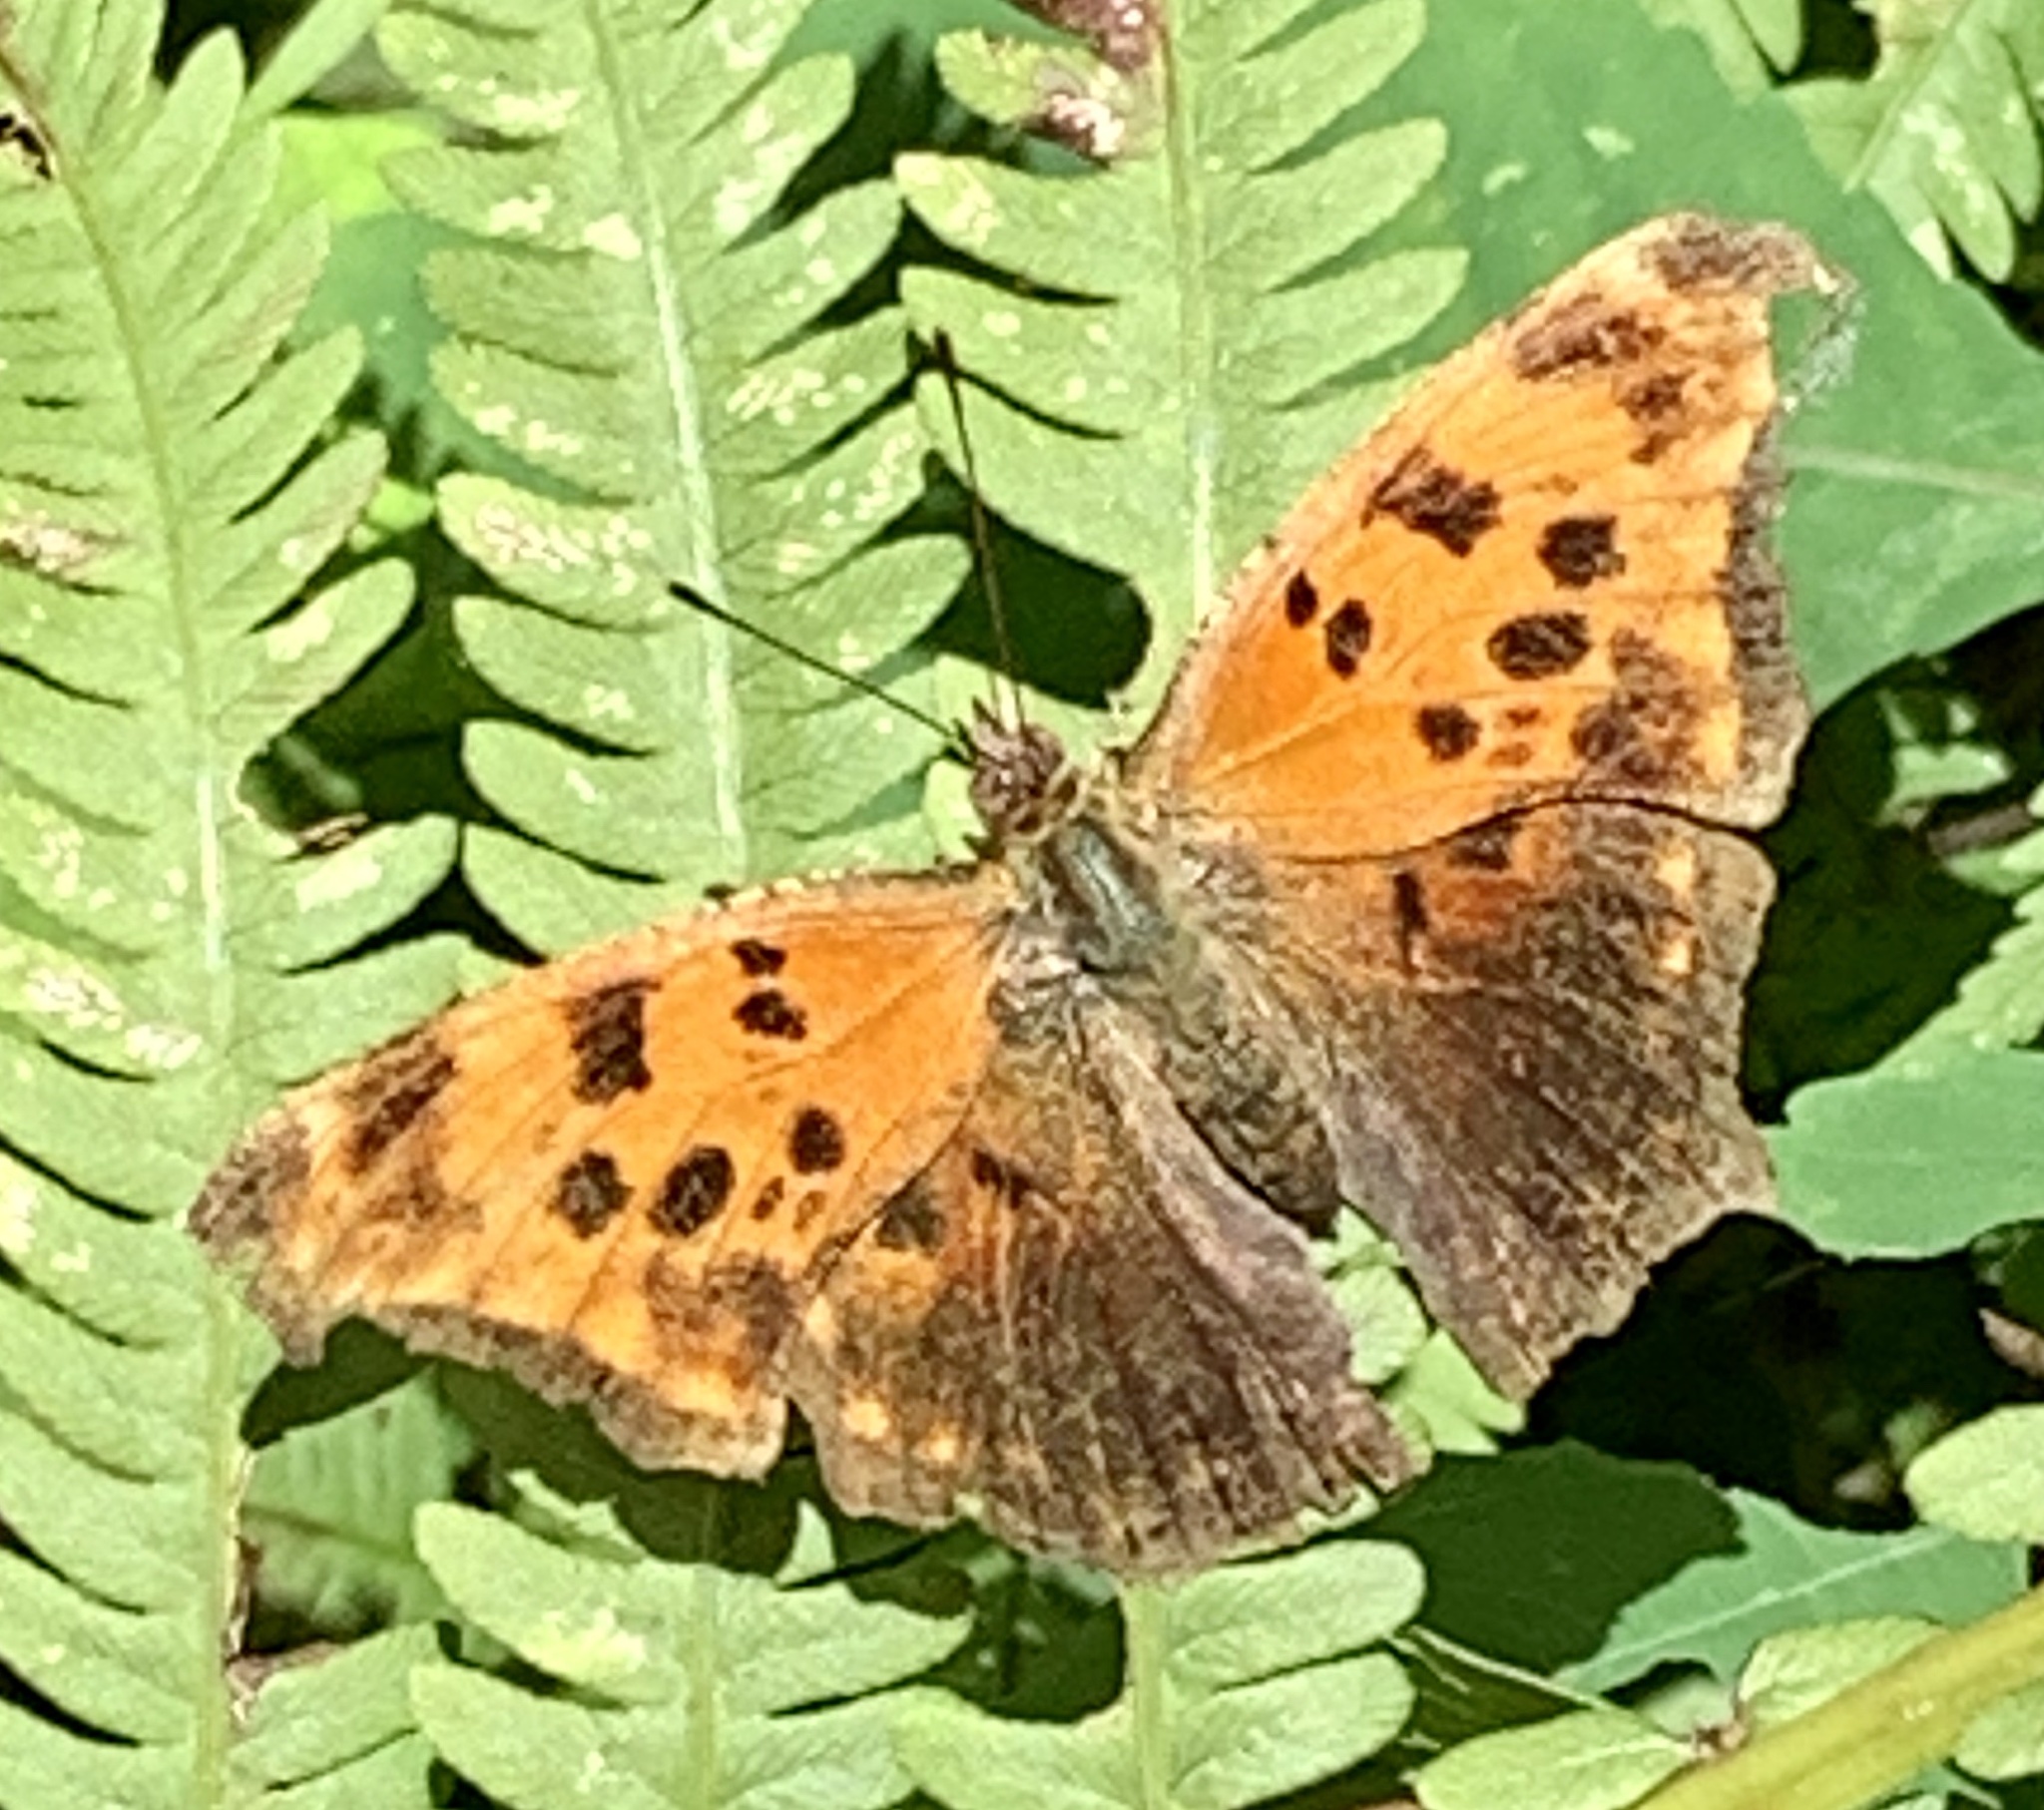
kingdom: Animalia
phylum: Arthropoda
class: Insecta
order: Lepidoptera
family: Nymphalidae
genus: Polygonia
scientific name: Polygonia comma
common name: Eastern comma
